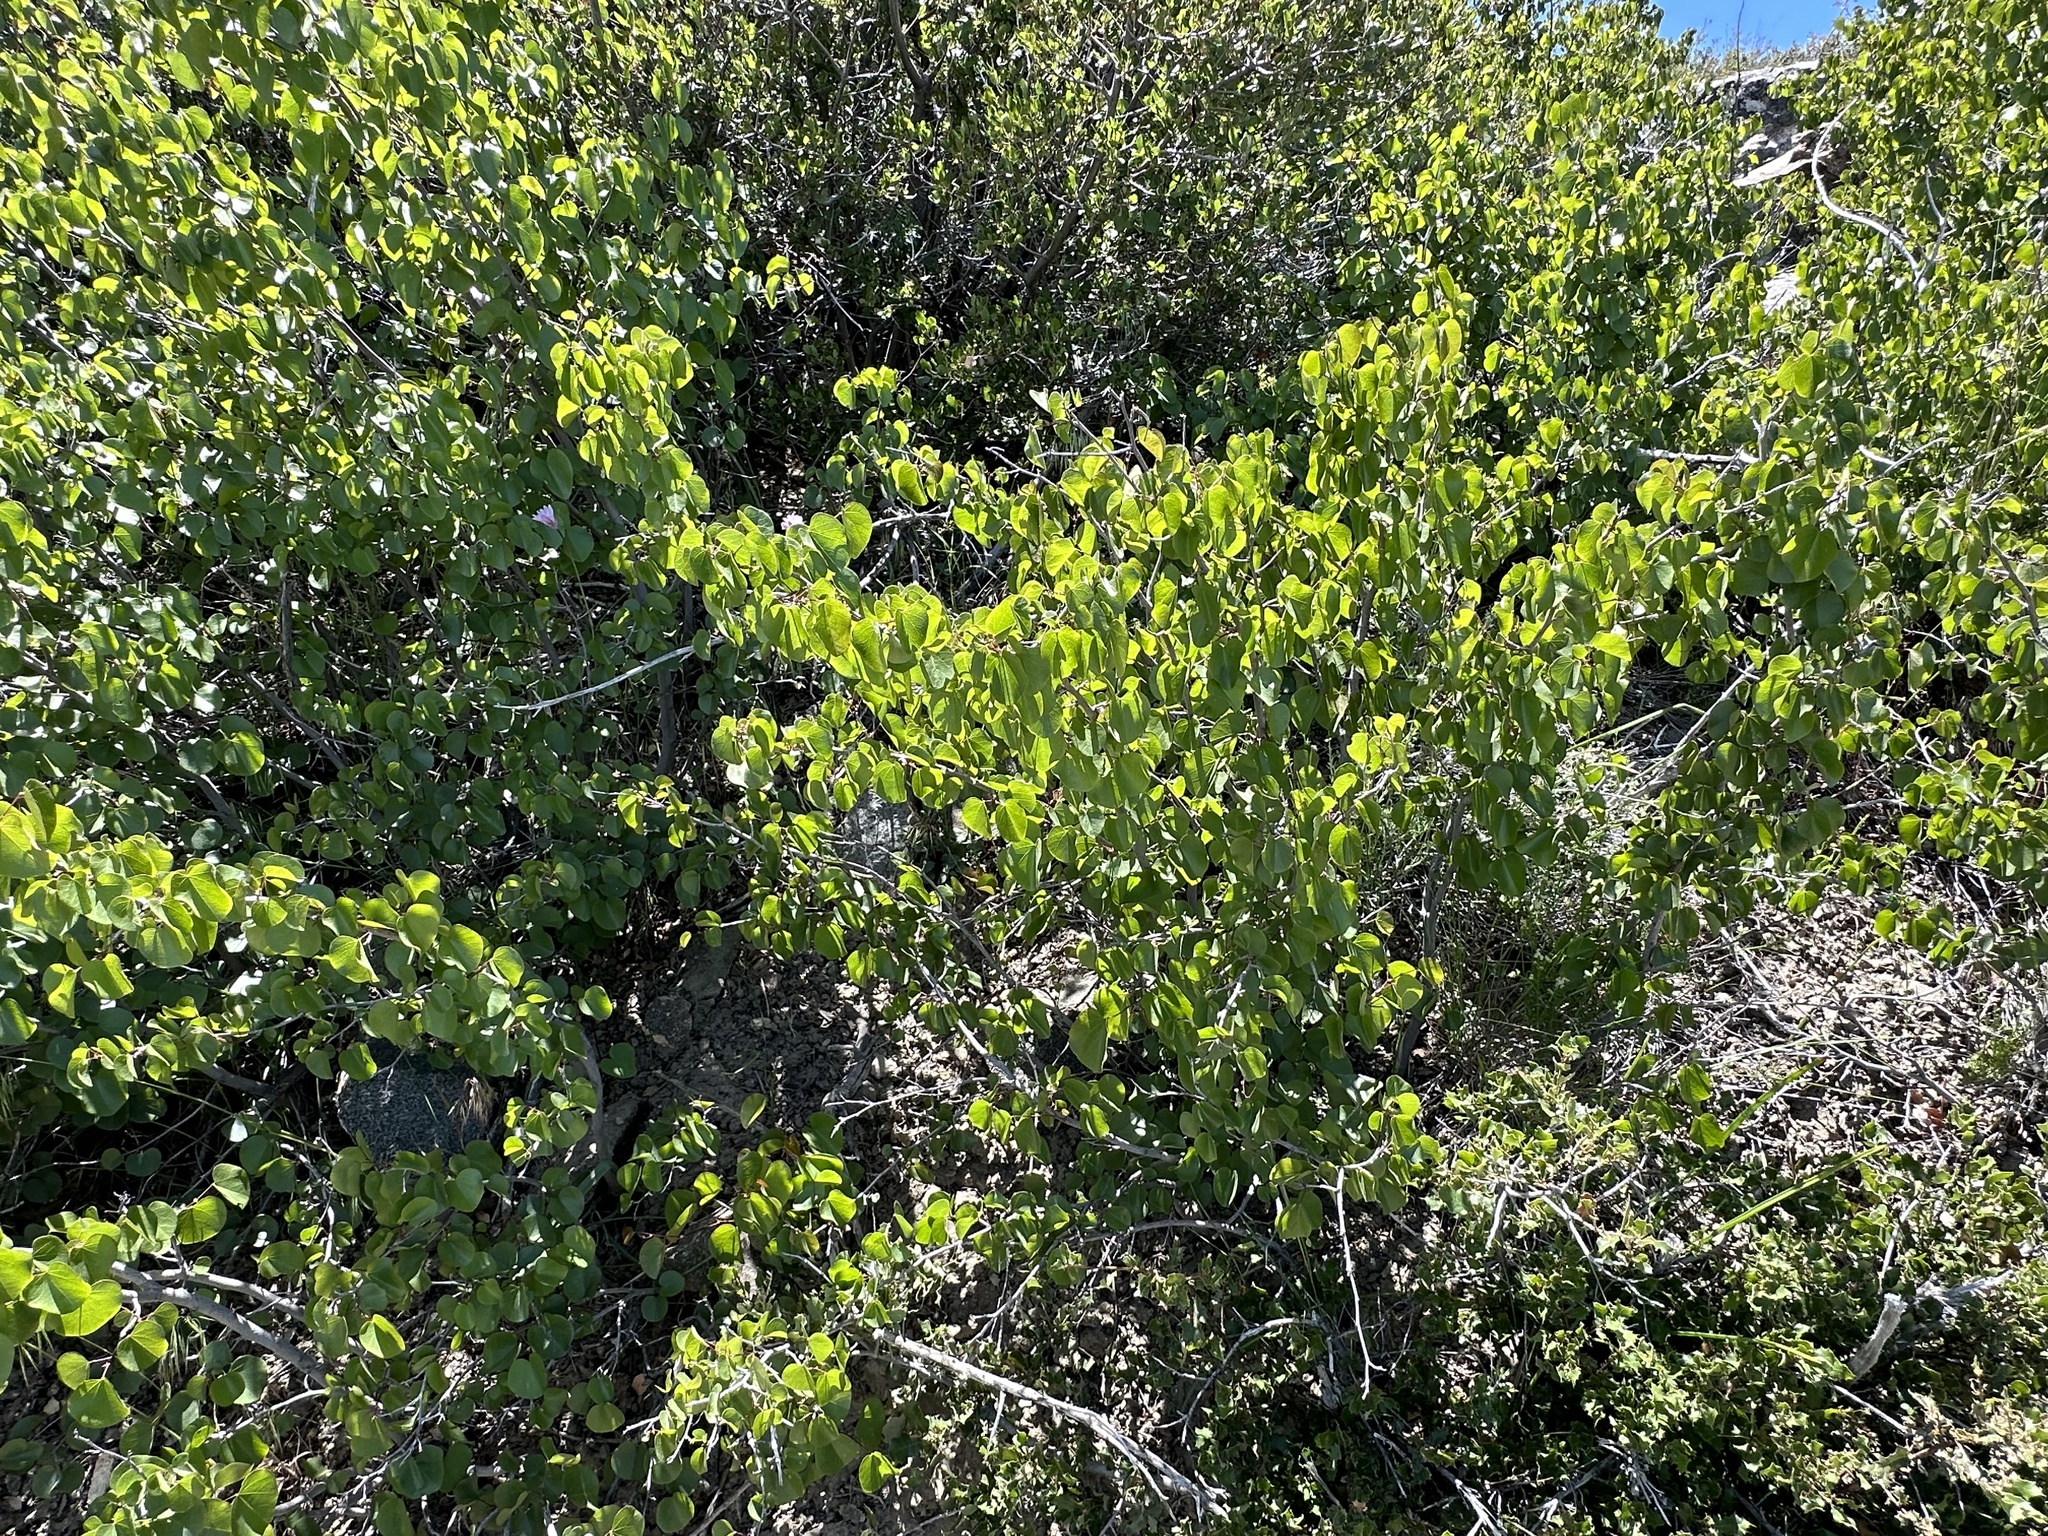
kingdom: Plantae
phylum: Tracheophyta
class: Magnoliopsida
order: Fabales
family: Fabaceae
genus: Cercis
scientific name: Cercis occidentalis
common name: California redbud
